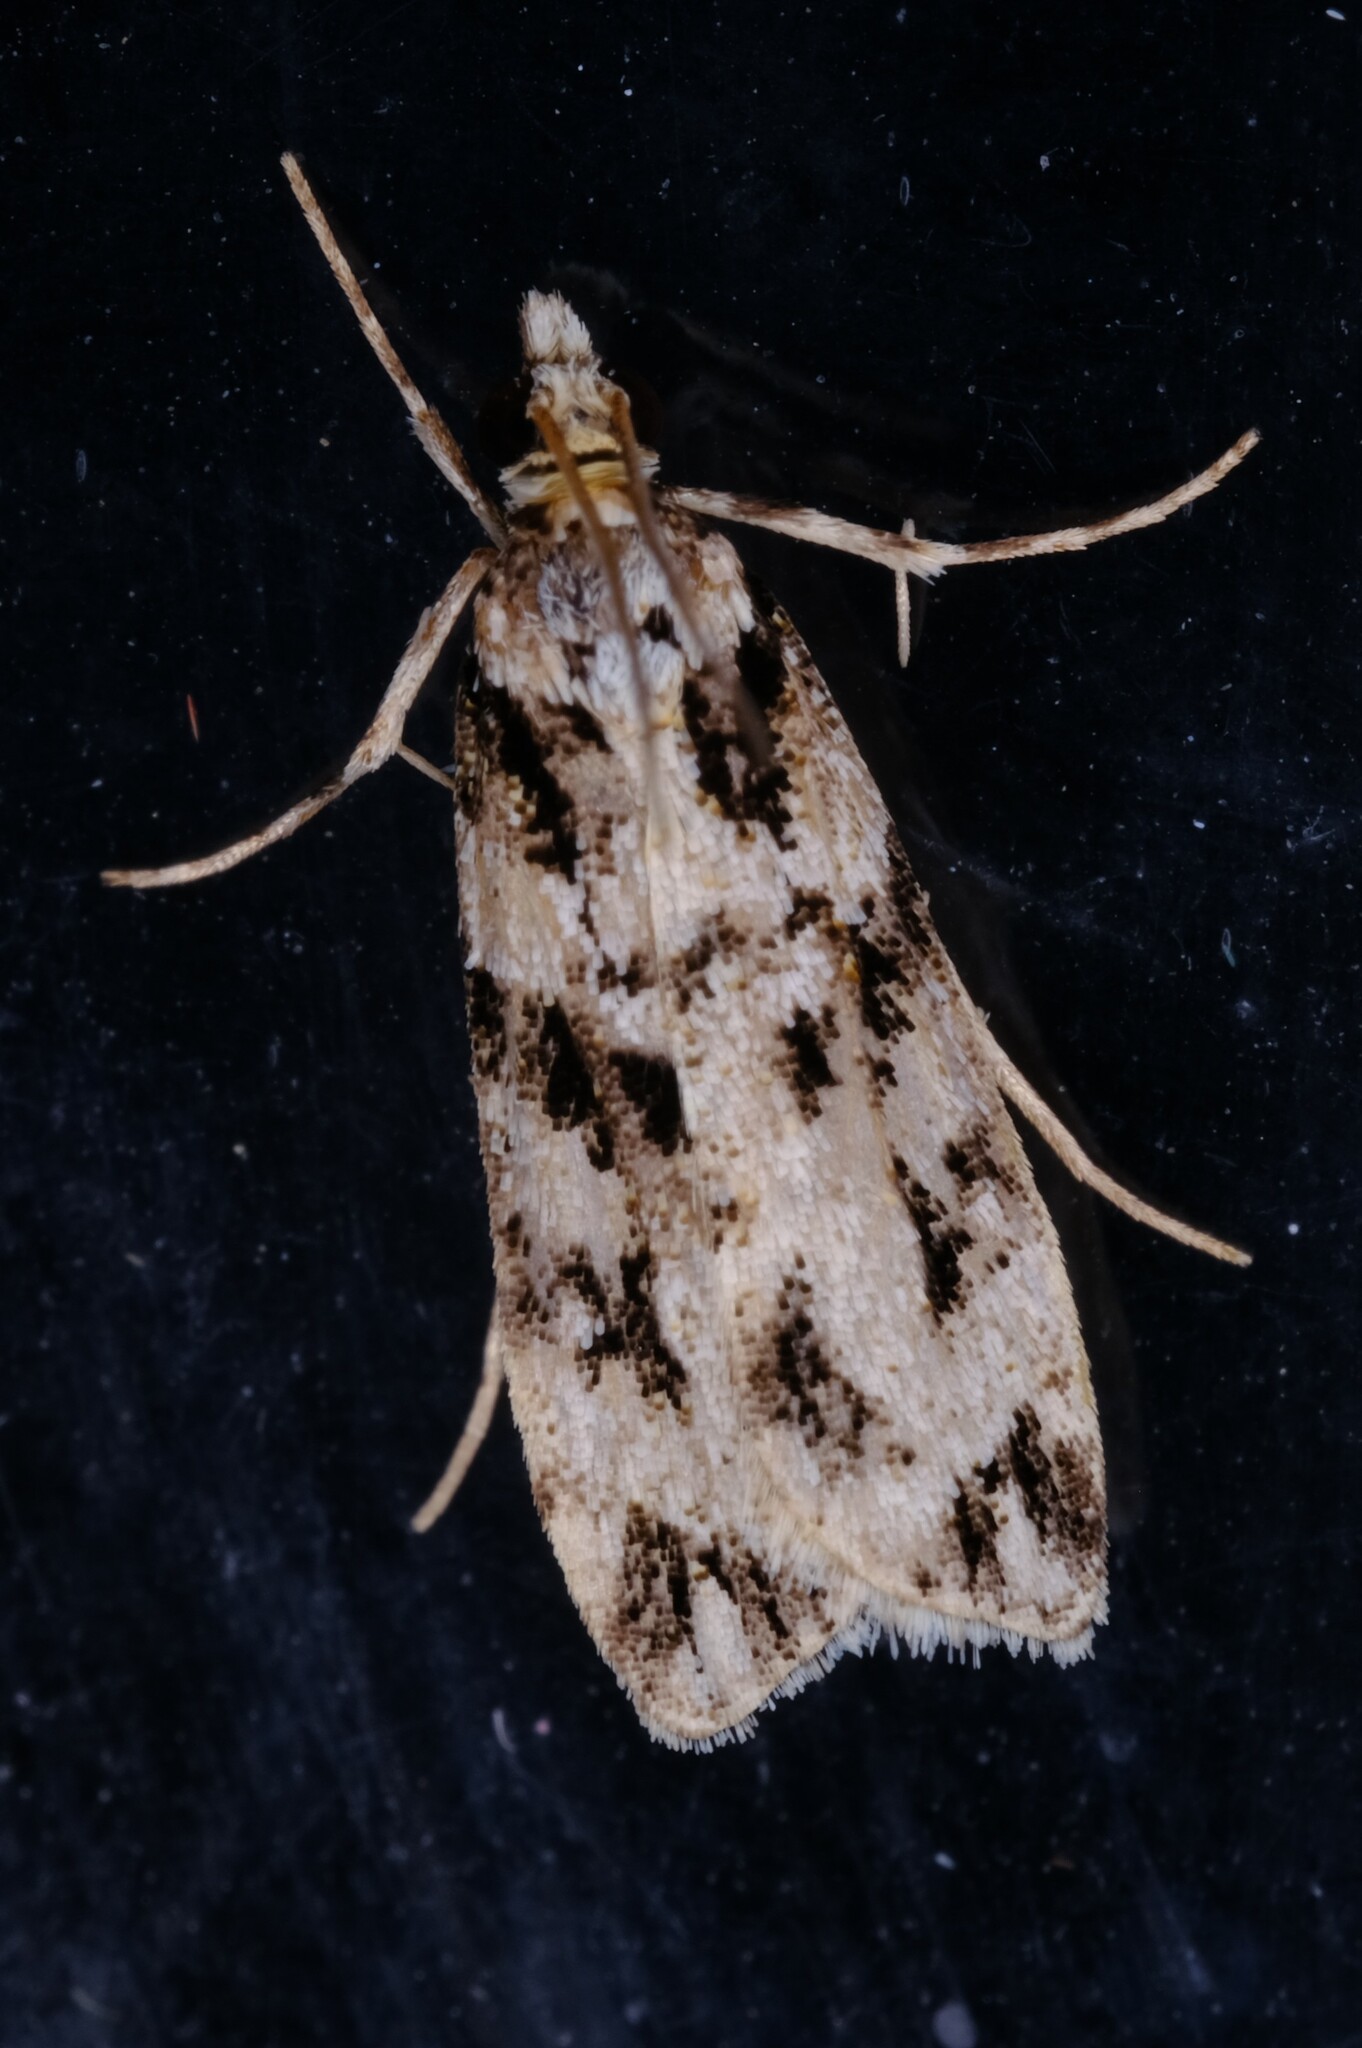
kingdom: Animalia
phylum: Arthropoda
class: Insecta
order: Lepidoptera
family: Crambidae
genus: Scoparia
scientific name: Scoparia chiasta
